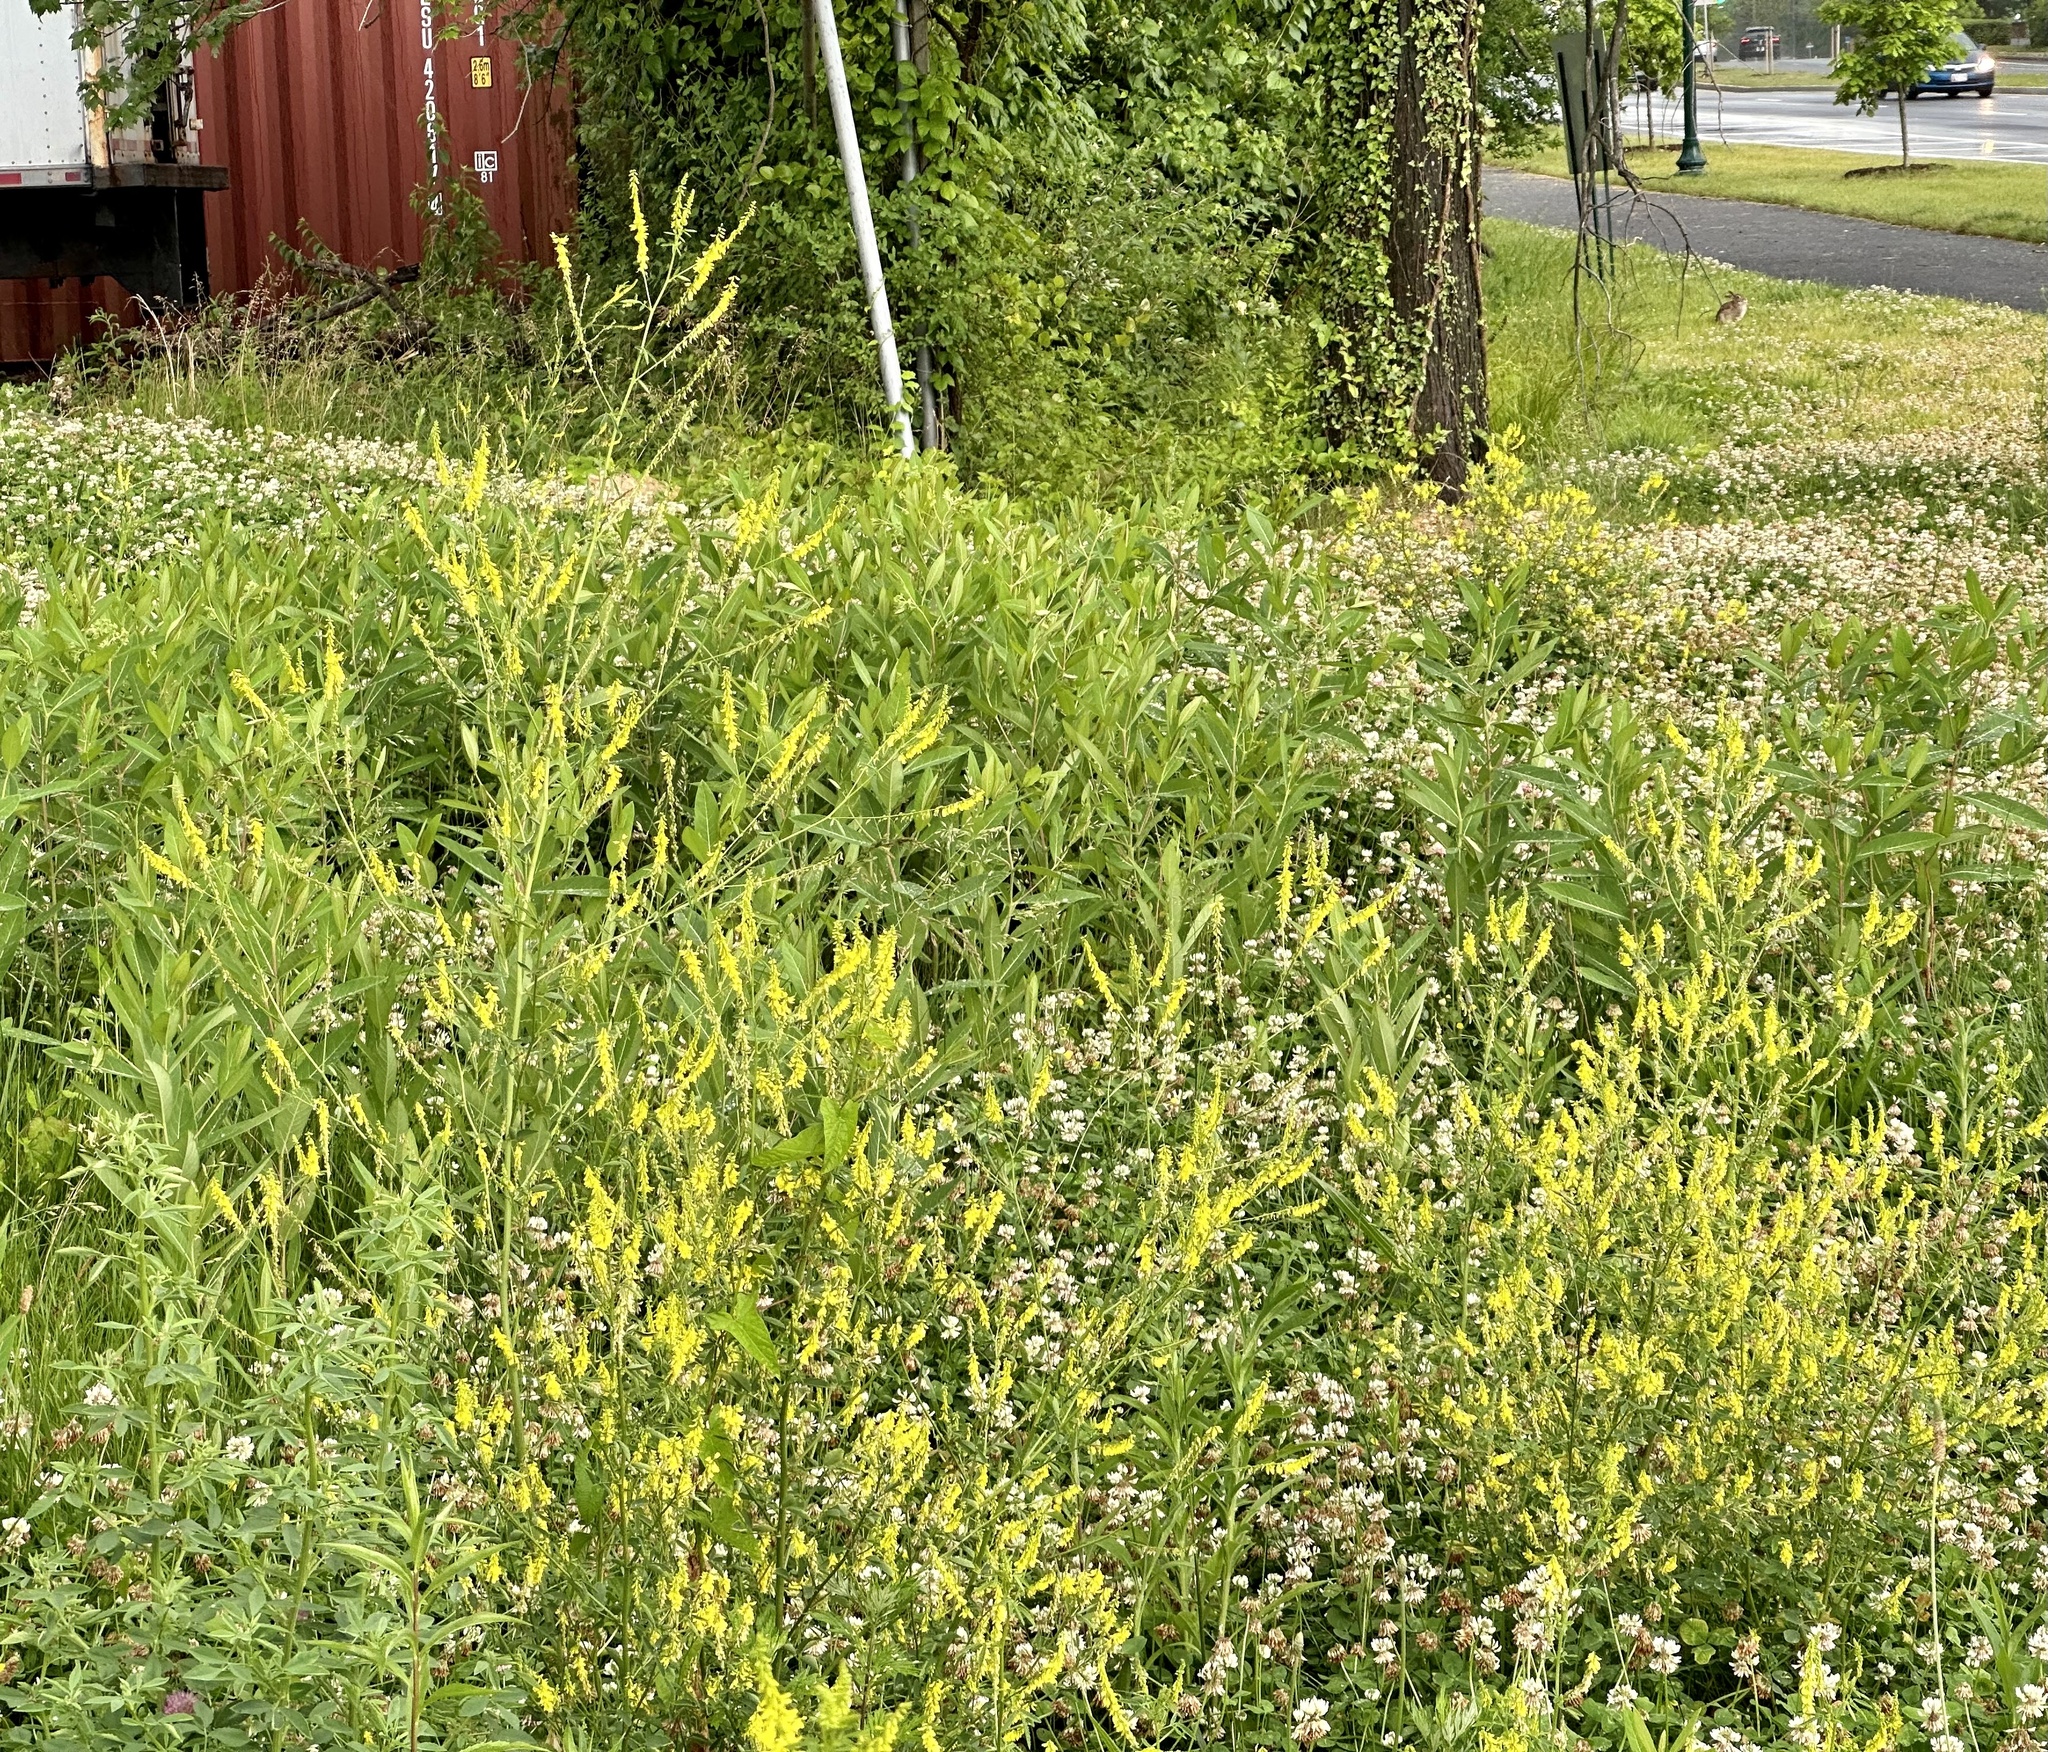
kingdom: Plantae
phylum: Tracheophyta
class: Magnoliopsida
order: Fabales
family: Fabaceae
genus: Melilotus
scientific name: Melilotus officinalis
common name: Sweetclover
